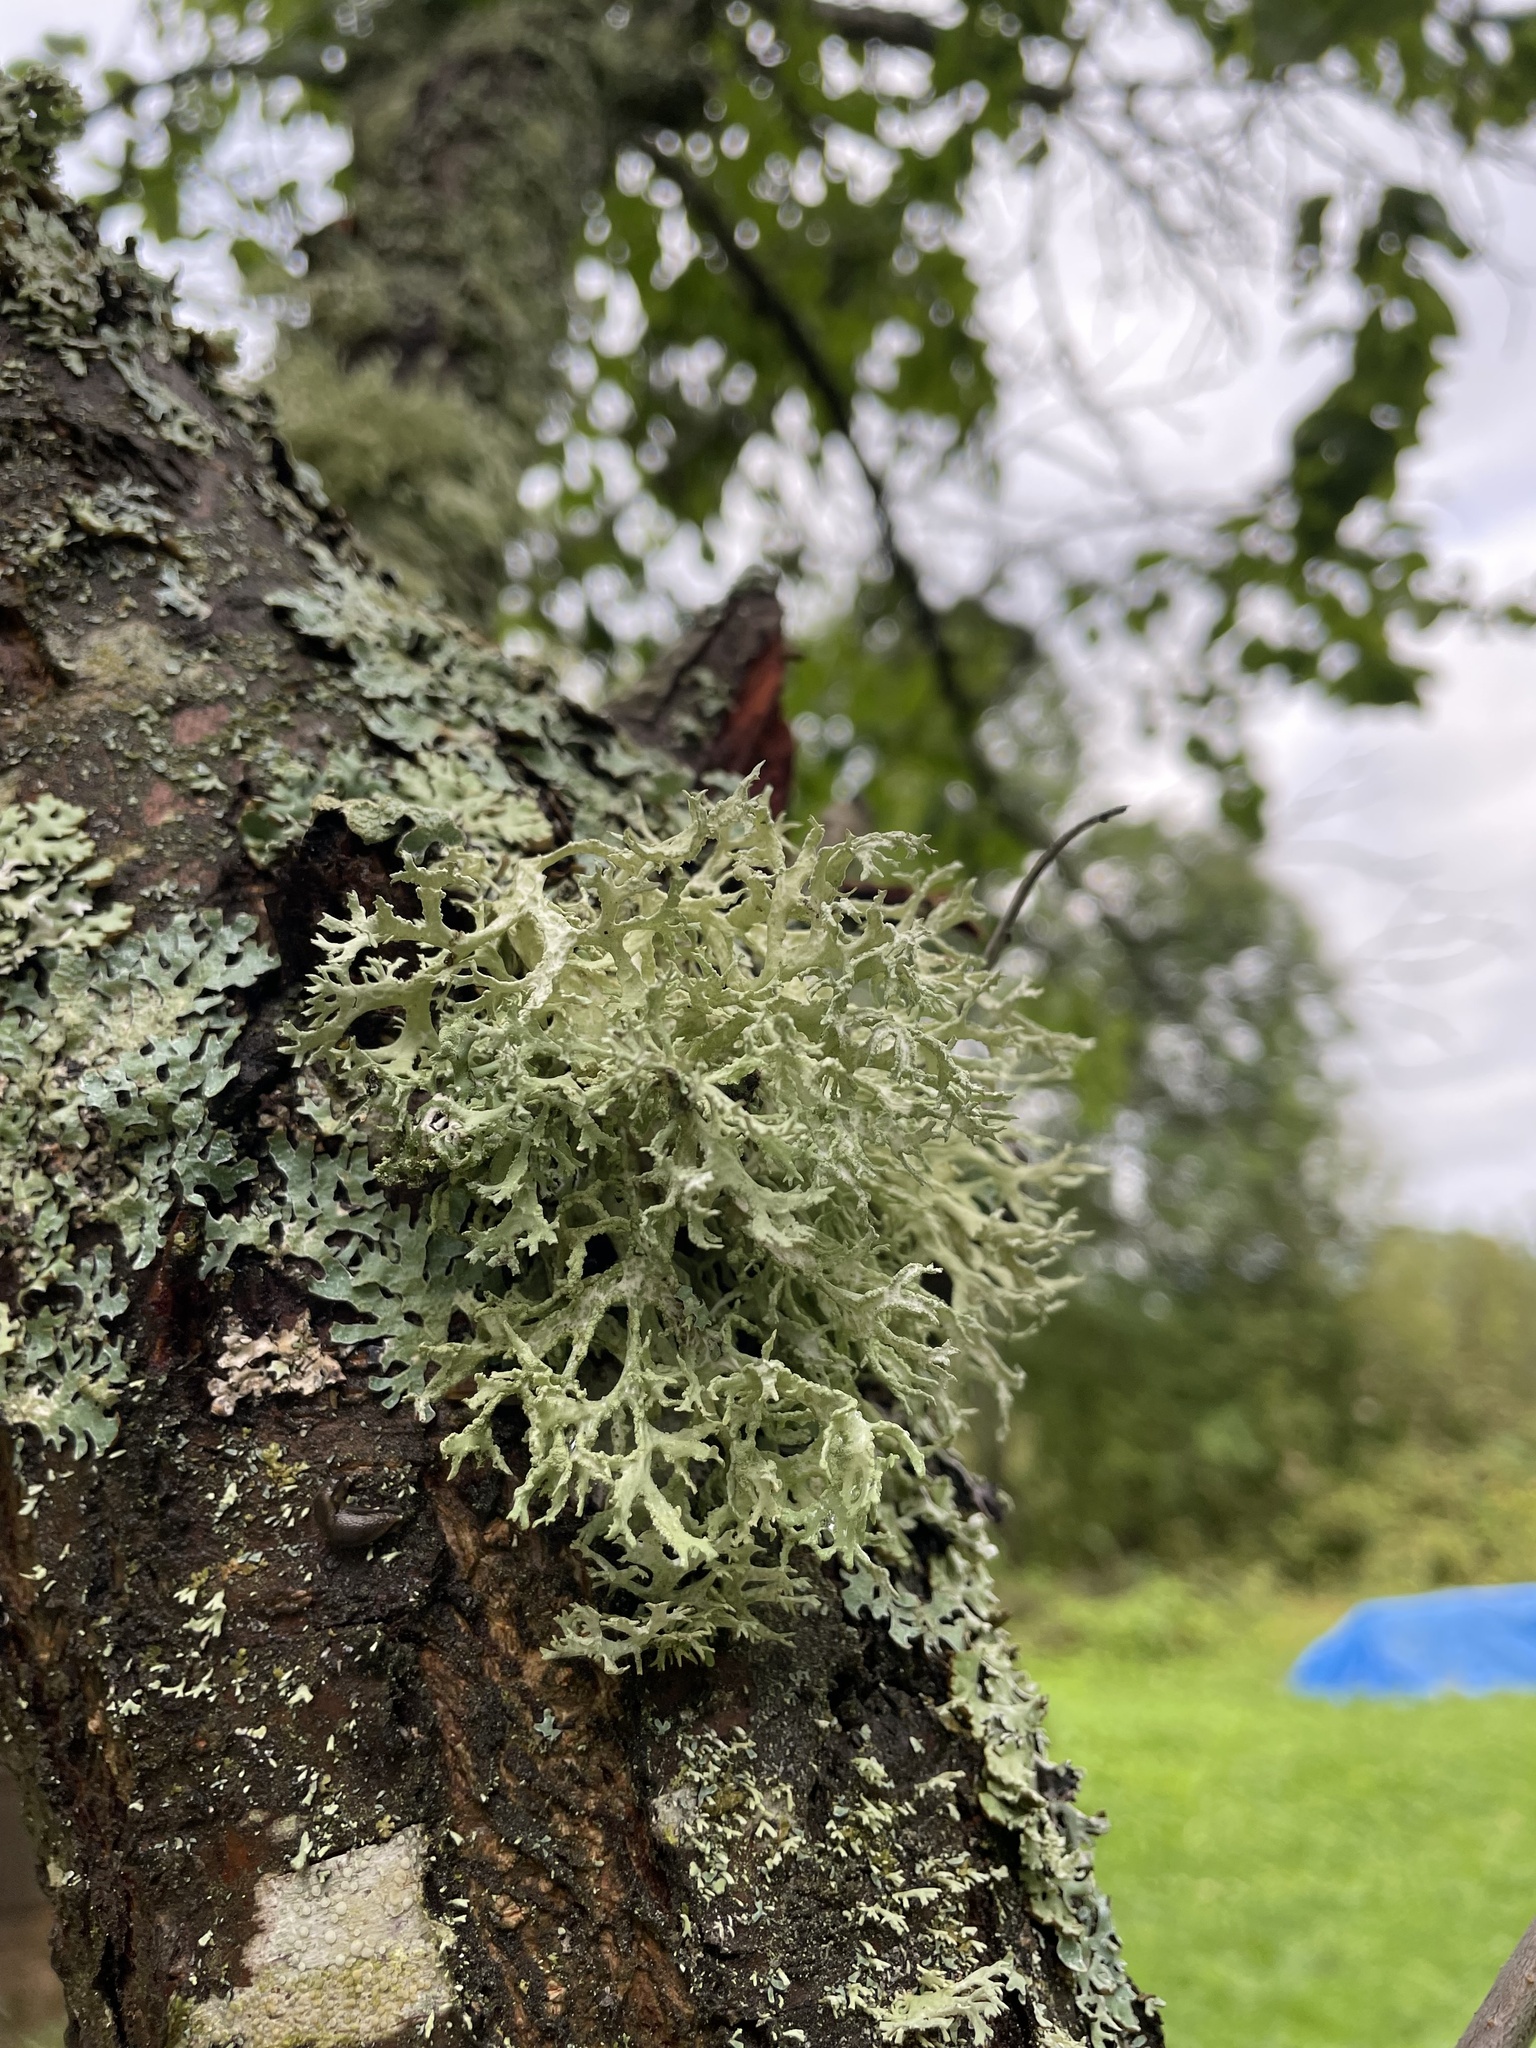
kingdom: Fungi
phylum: Ascomycota
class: Lecanoromycetes
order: Lecanorales
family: Parmeliaceae
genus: Evernia
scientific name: Evernia prunastri
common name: Oak moss
